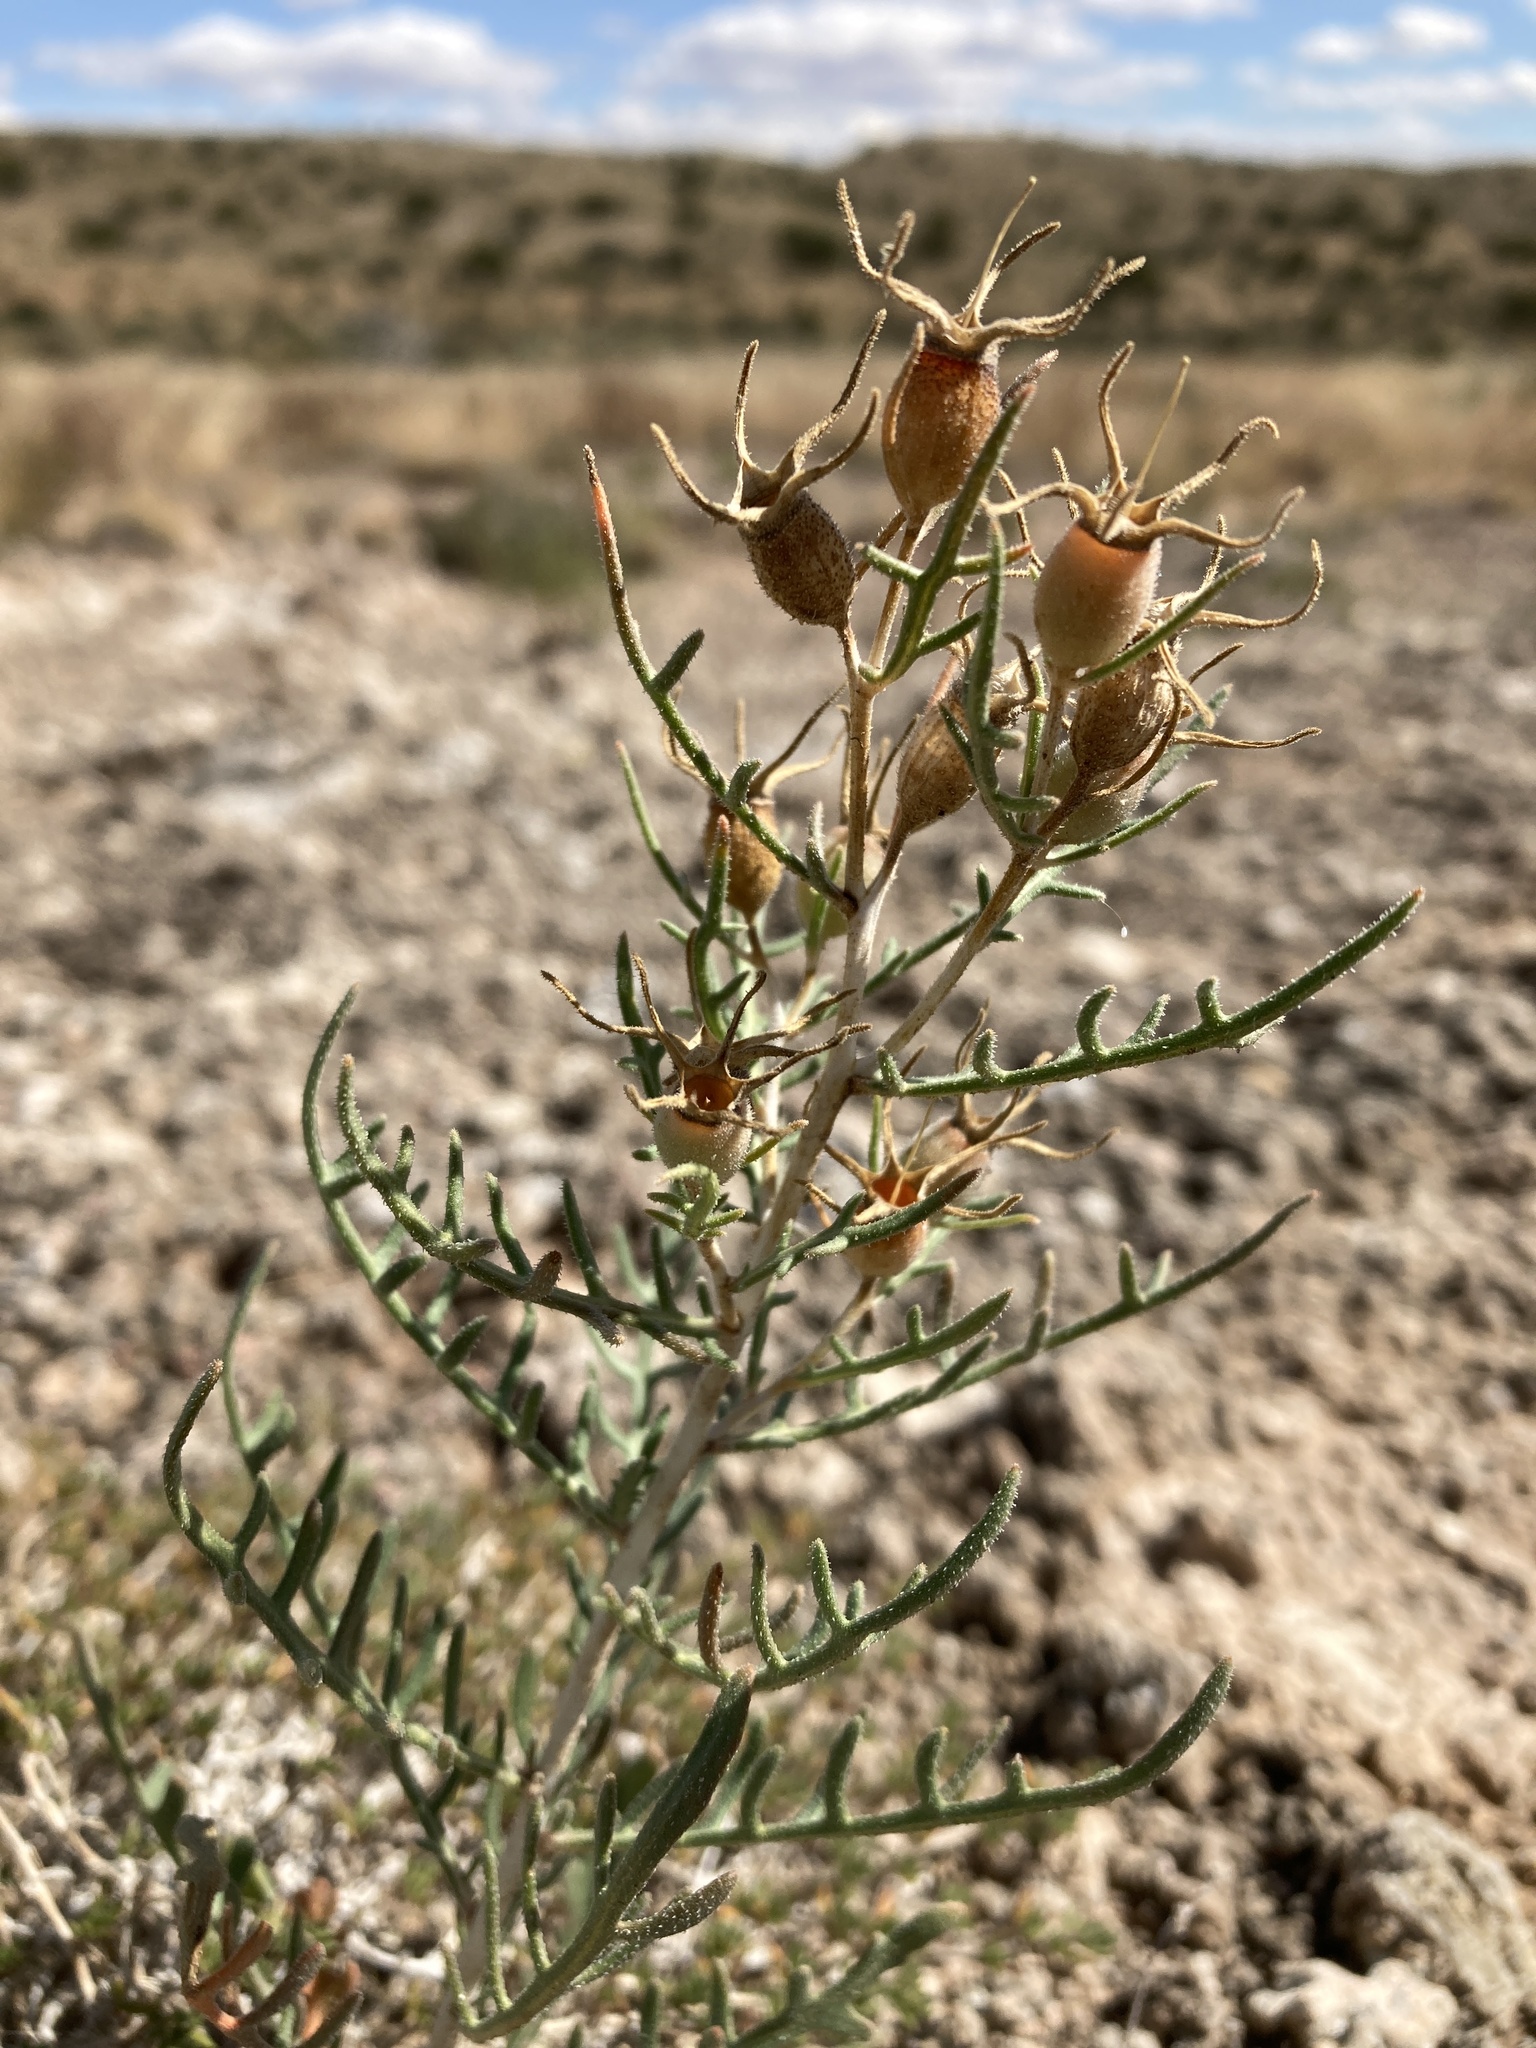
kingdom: Plantae
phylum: Tracheophyta
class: Magnoliopsida
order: Cornales
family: Loasaceae
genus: Mentzelia
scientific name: Mentzelia humilis
